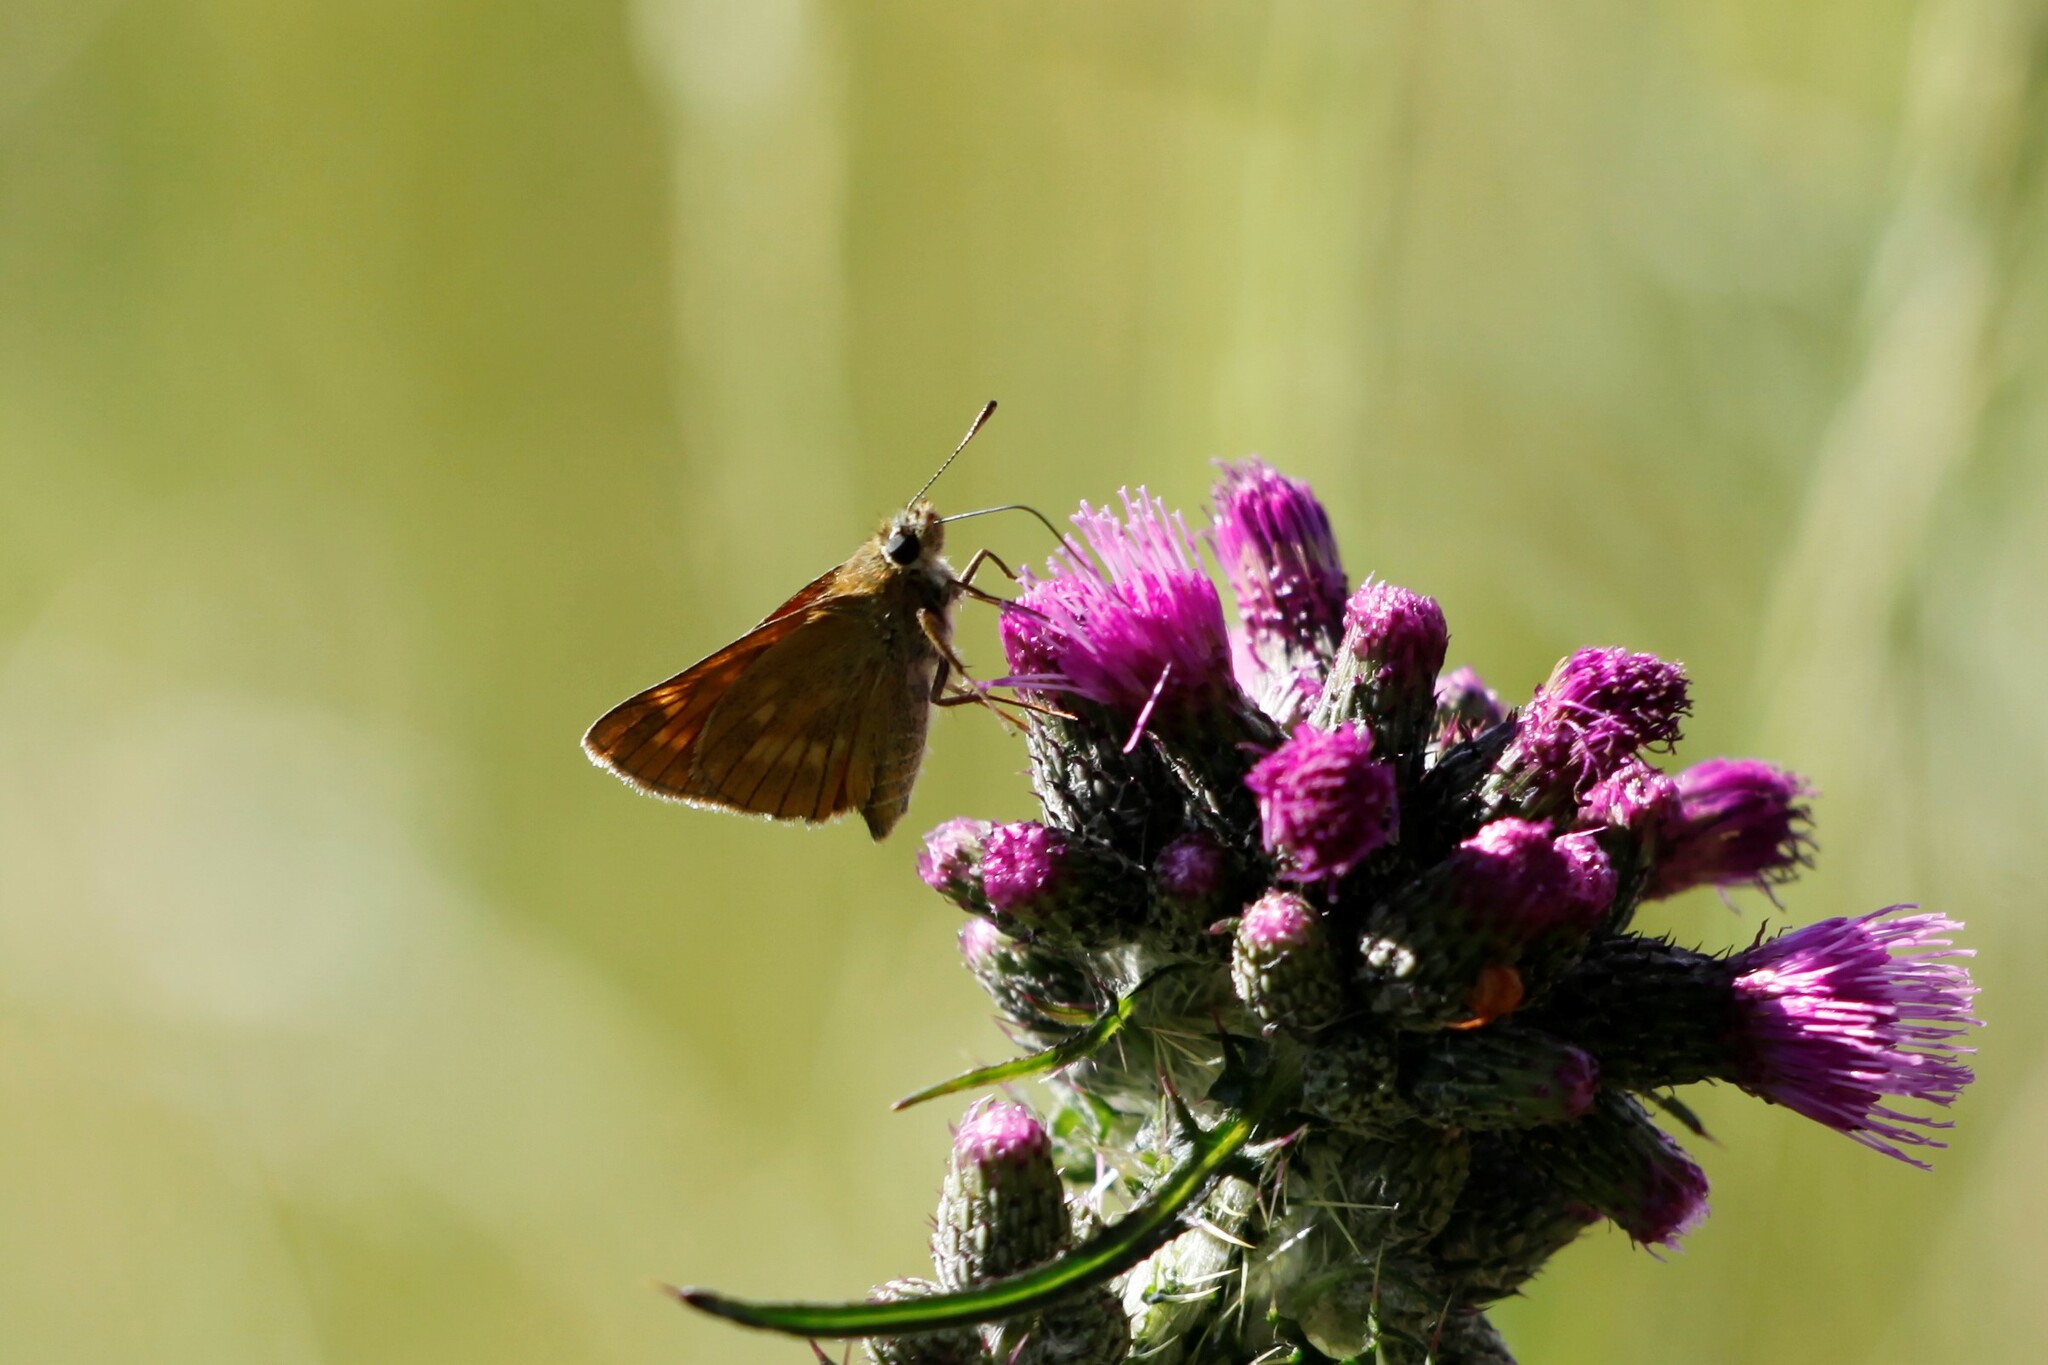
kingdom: Animalia
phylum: Arthropoda
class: Insecta
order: Lepidoptera
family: Hesperiidae
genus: Ochlodes
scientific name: Ochlodes venata
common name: Large skipper
